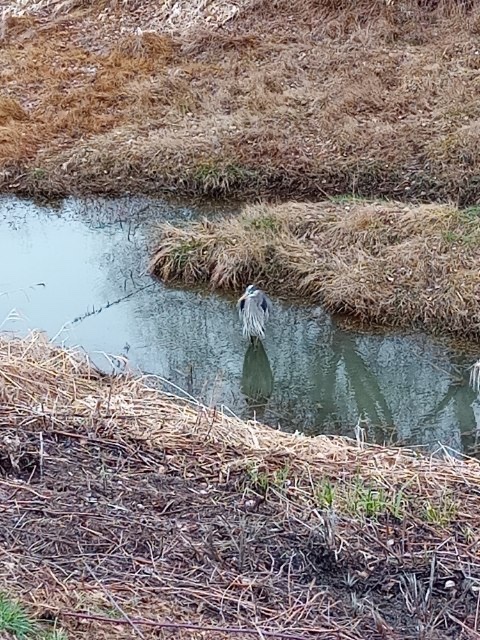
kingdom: Animalia
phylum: Chordata
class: Aves
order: Pelecaniformes
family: Ardeidae
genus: Ardea
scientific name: Ardea herodias
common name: Great blue heron
